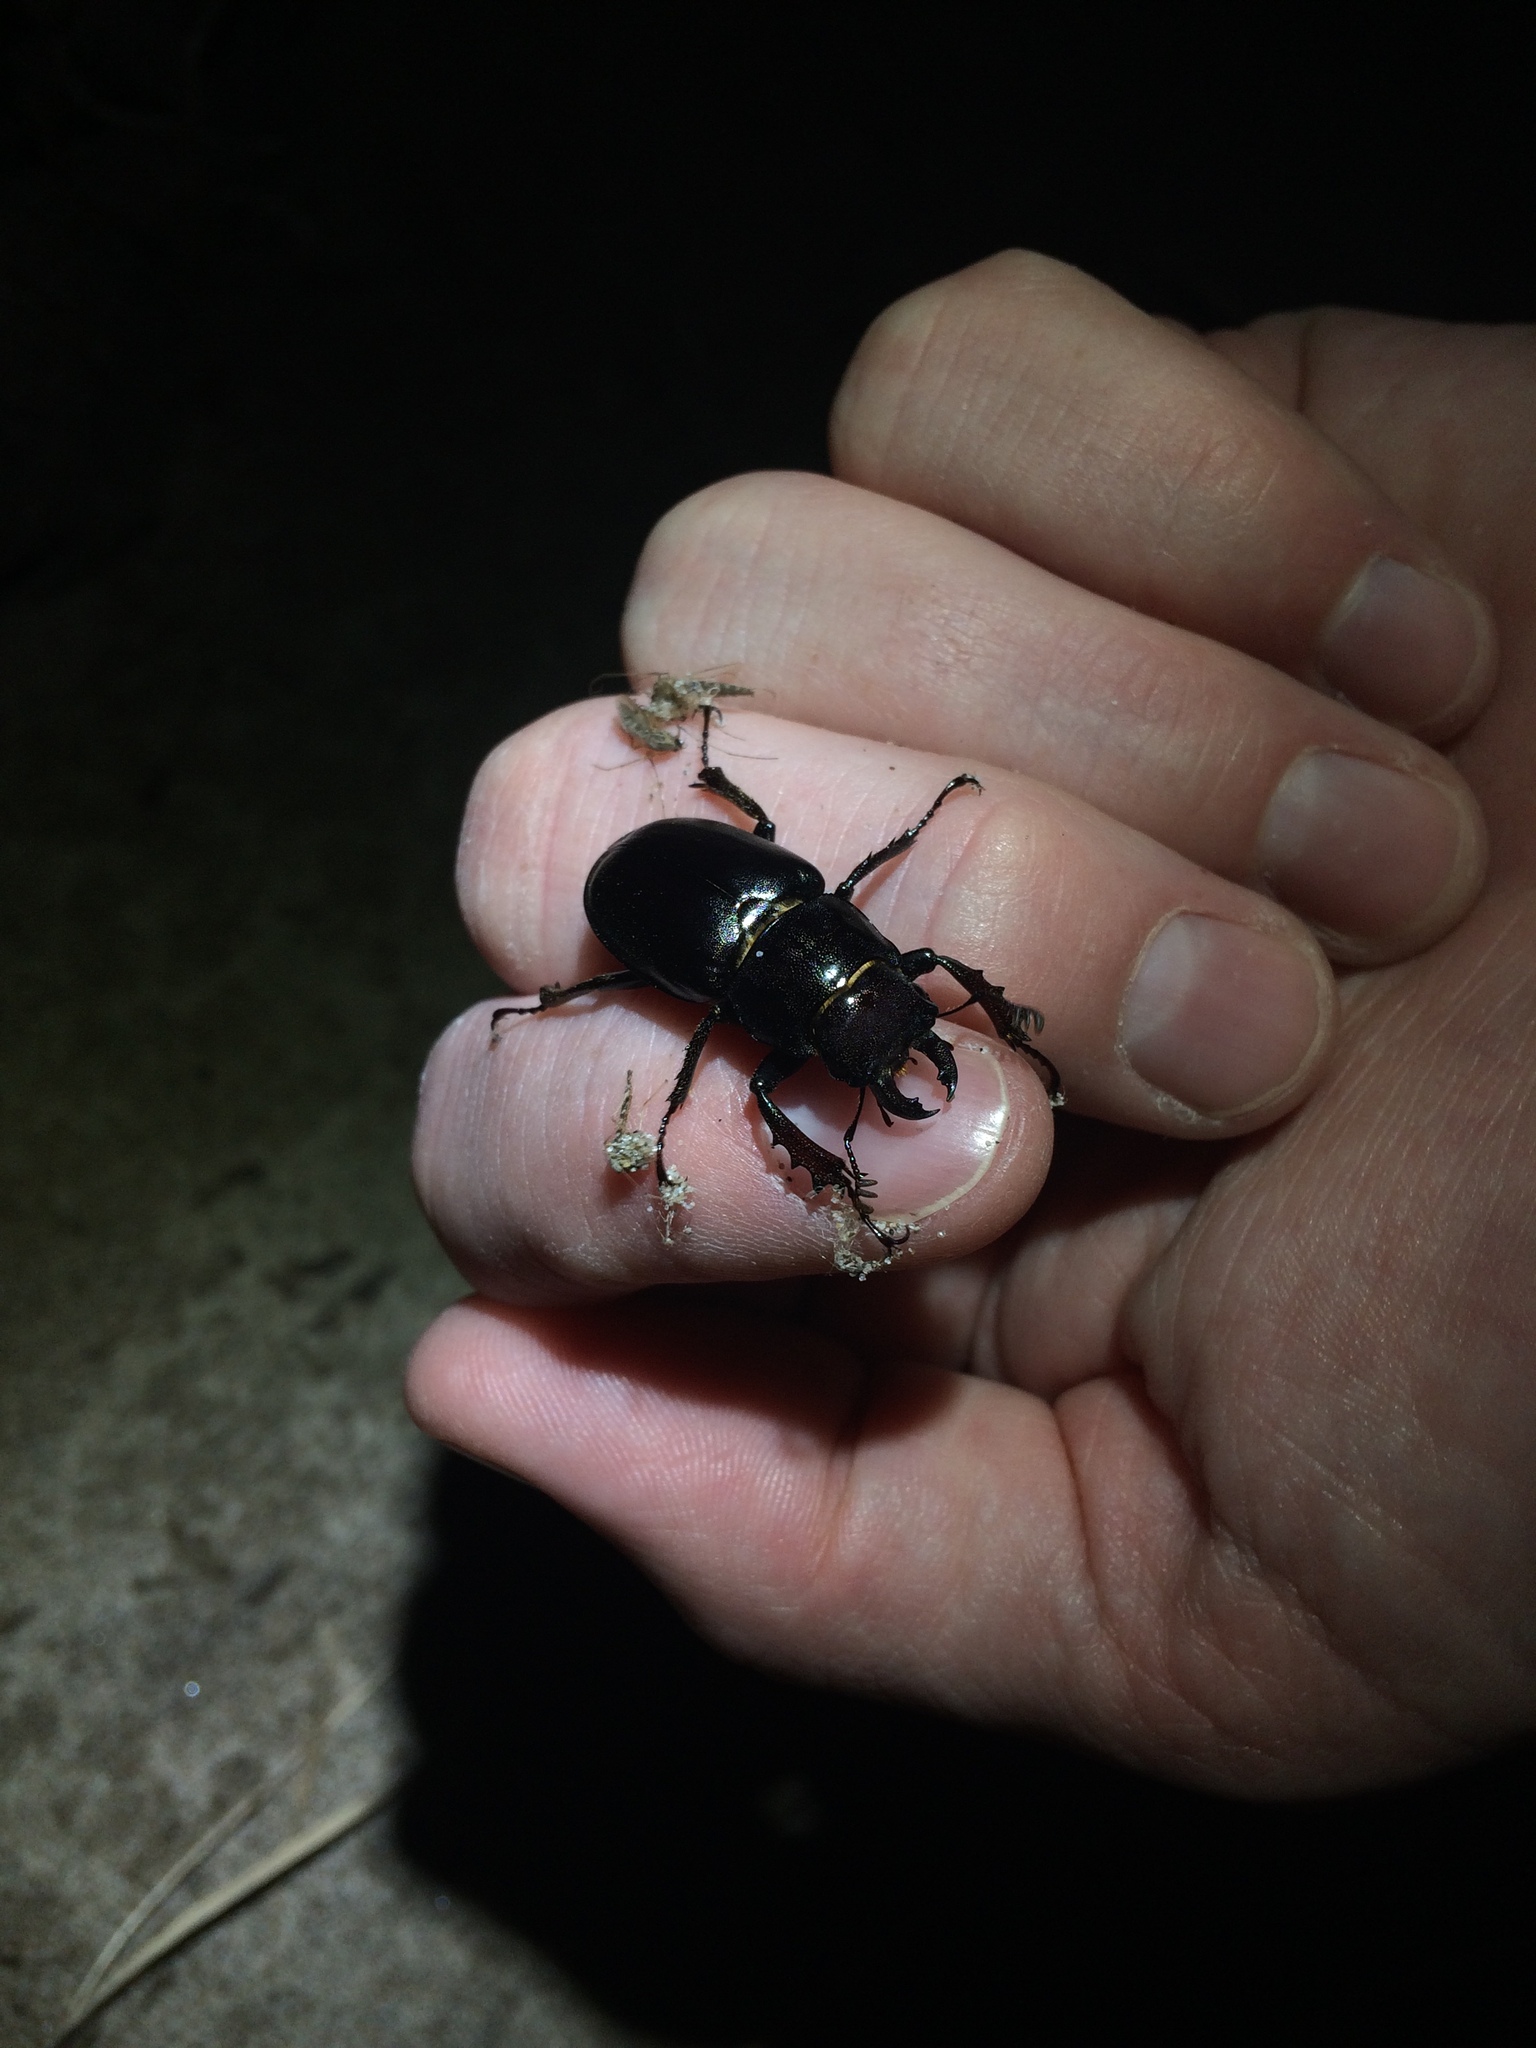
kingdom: Animalia
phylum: Arthropoda
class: Insecta
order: Coleoptera
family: Lucanidae
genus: Lucanus
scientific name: Lucanus placidus
